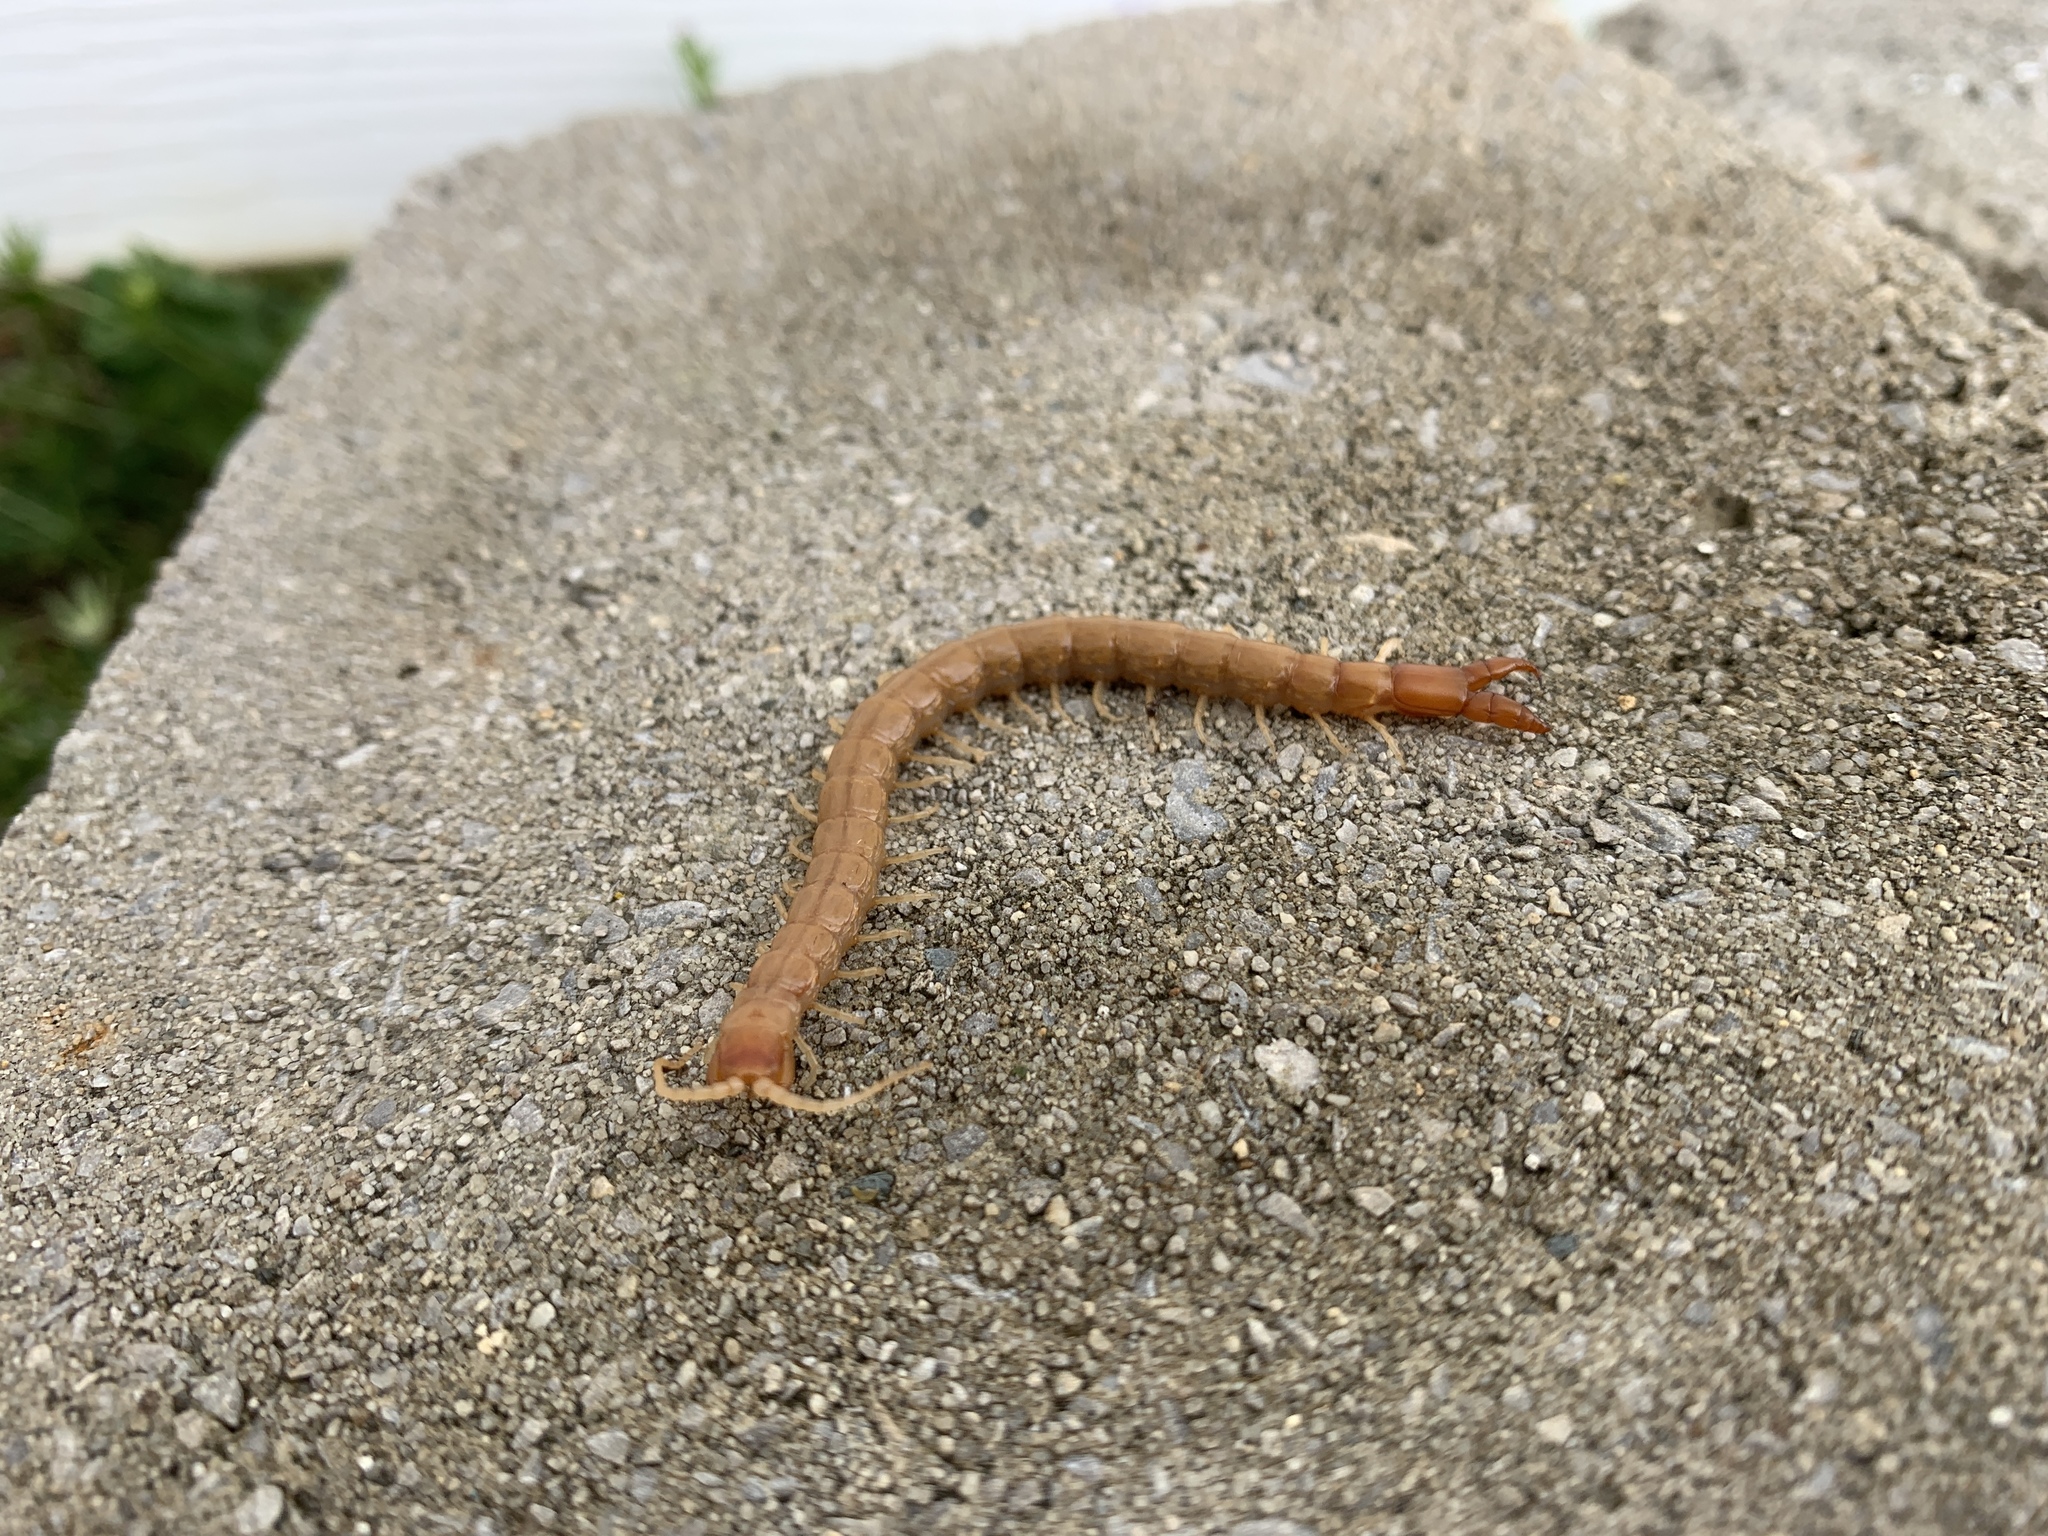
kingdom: Animalia
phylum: Arthropoda
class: Chilopoda
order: Scolopendromorpha
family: Cryptopidae
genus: Theatops
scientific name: Theatops posticus
